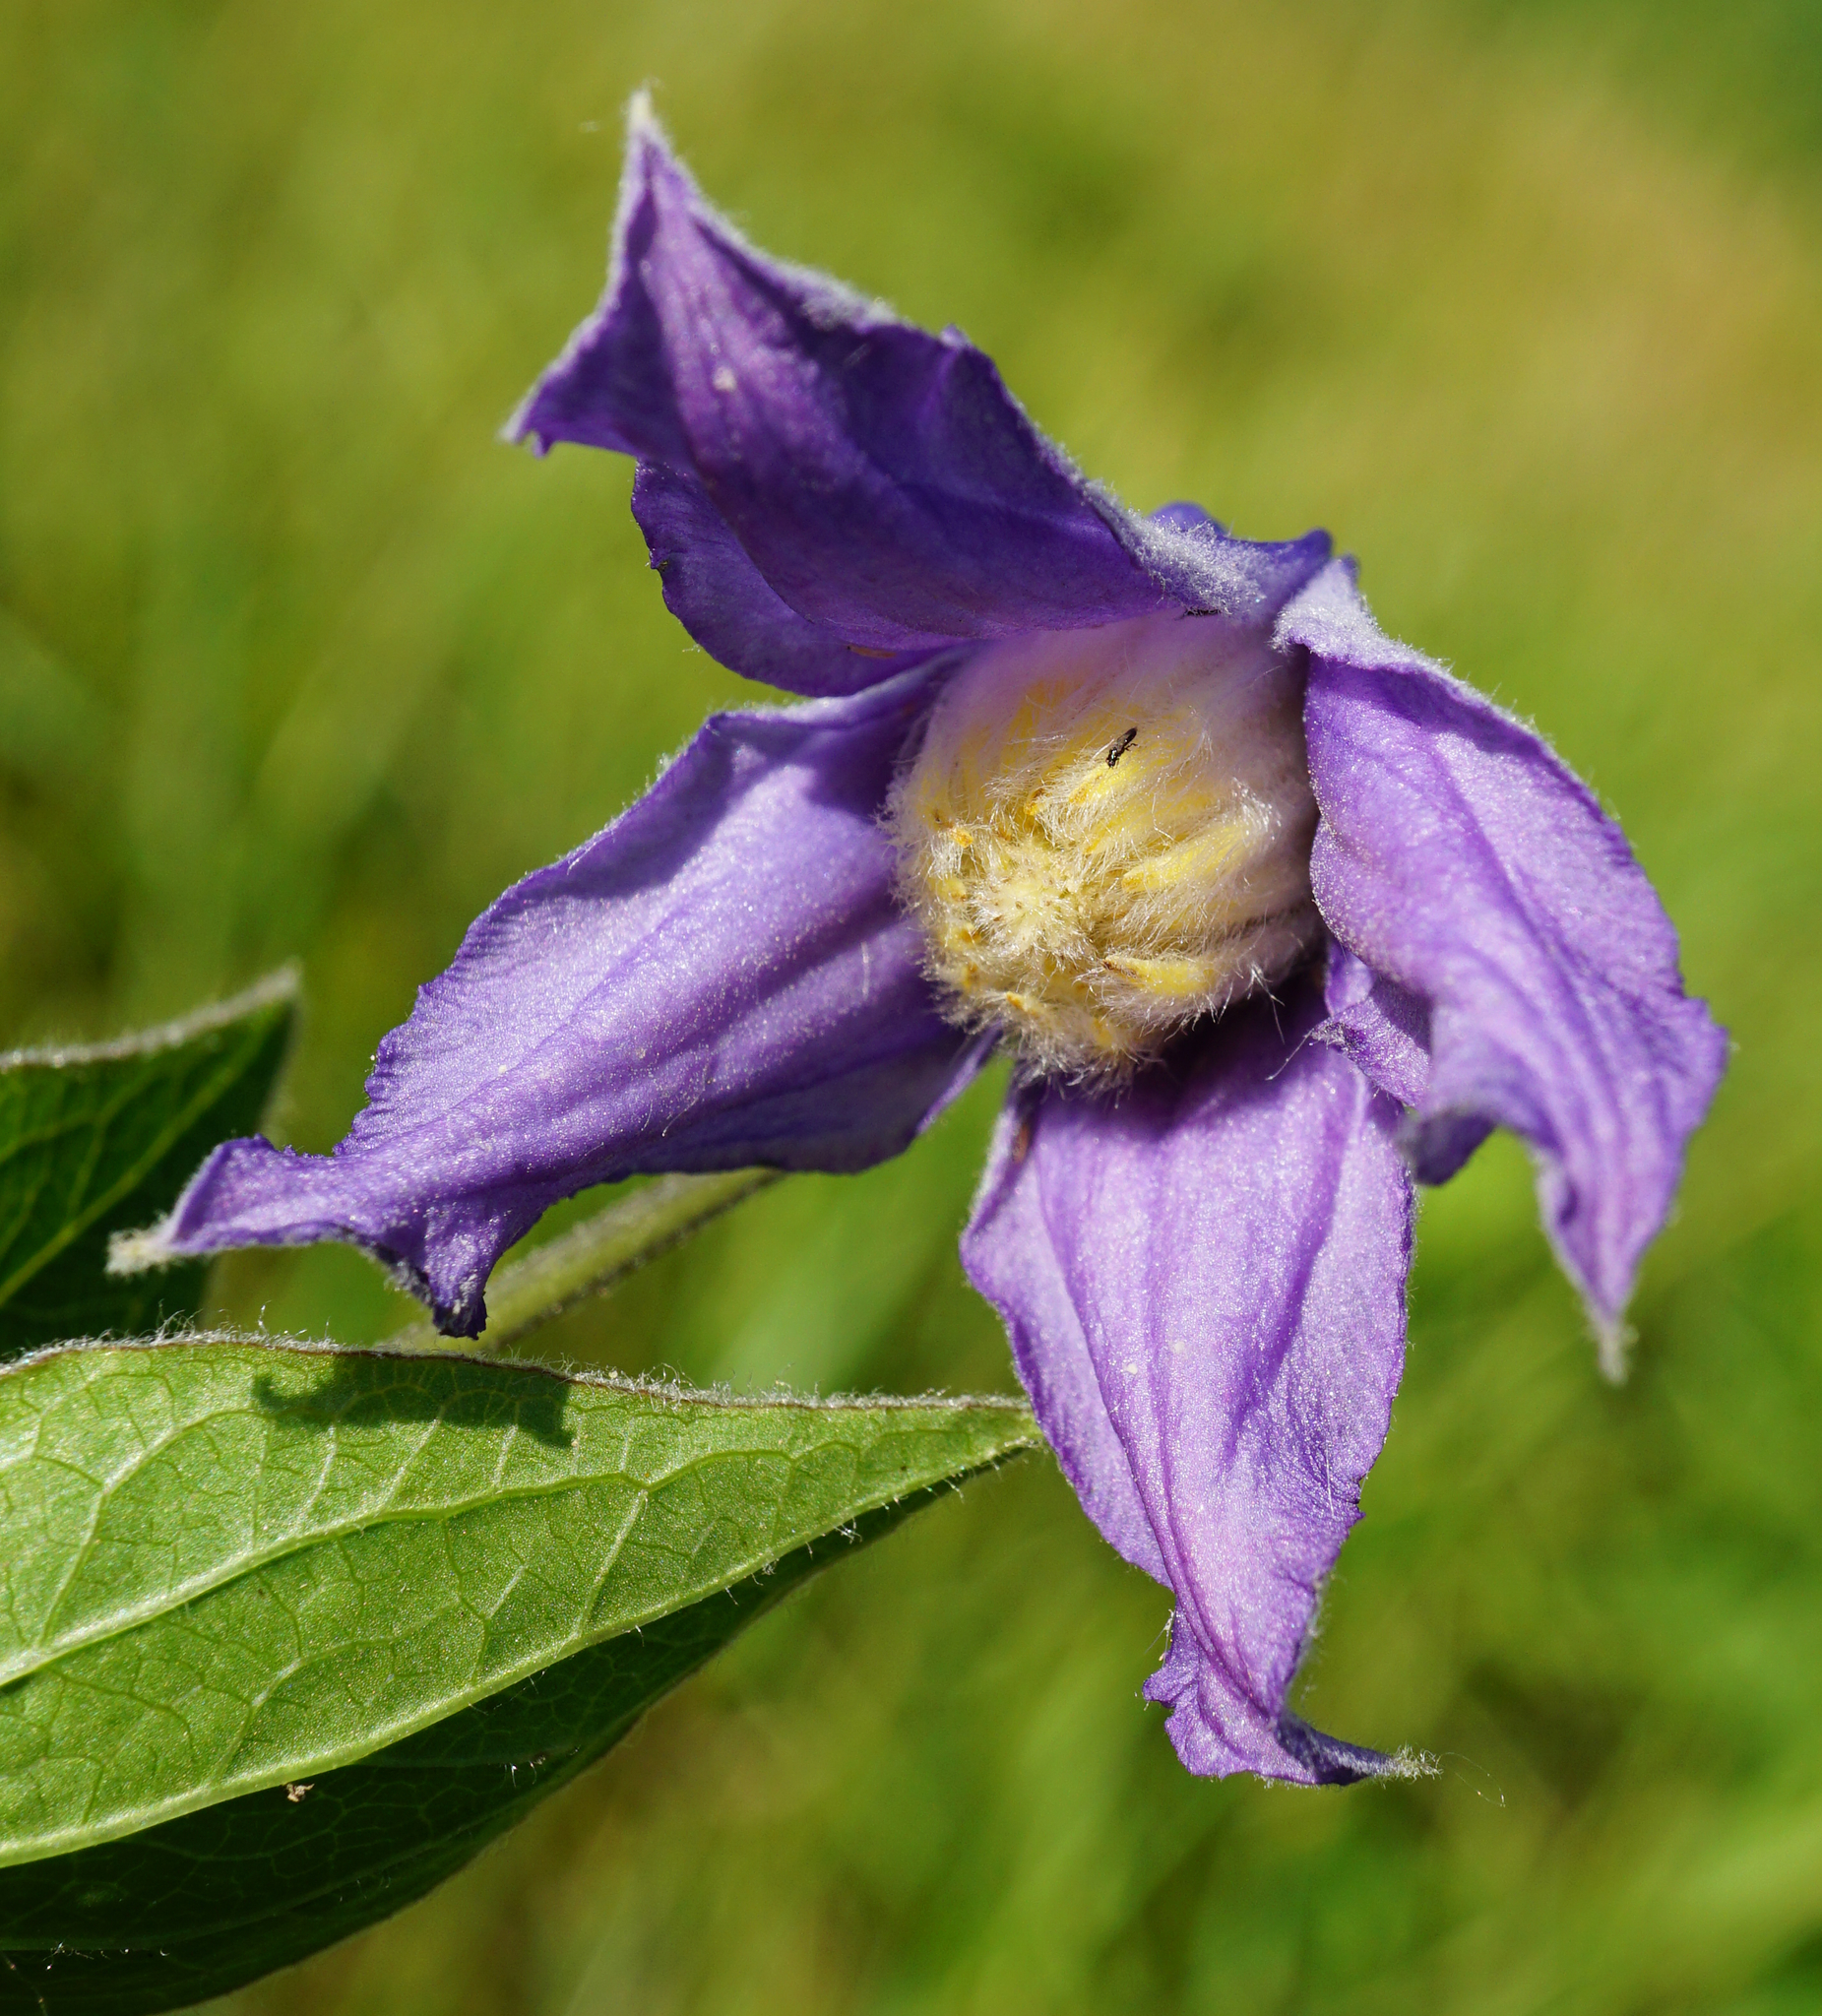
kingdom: Plantae
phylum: Tracheophyta
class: Magnoliopsida
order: Ranunculales
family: Ranunculaceae
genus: Clematis
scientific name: Clematis integrifolia
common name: Solitary clematis
